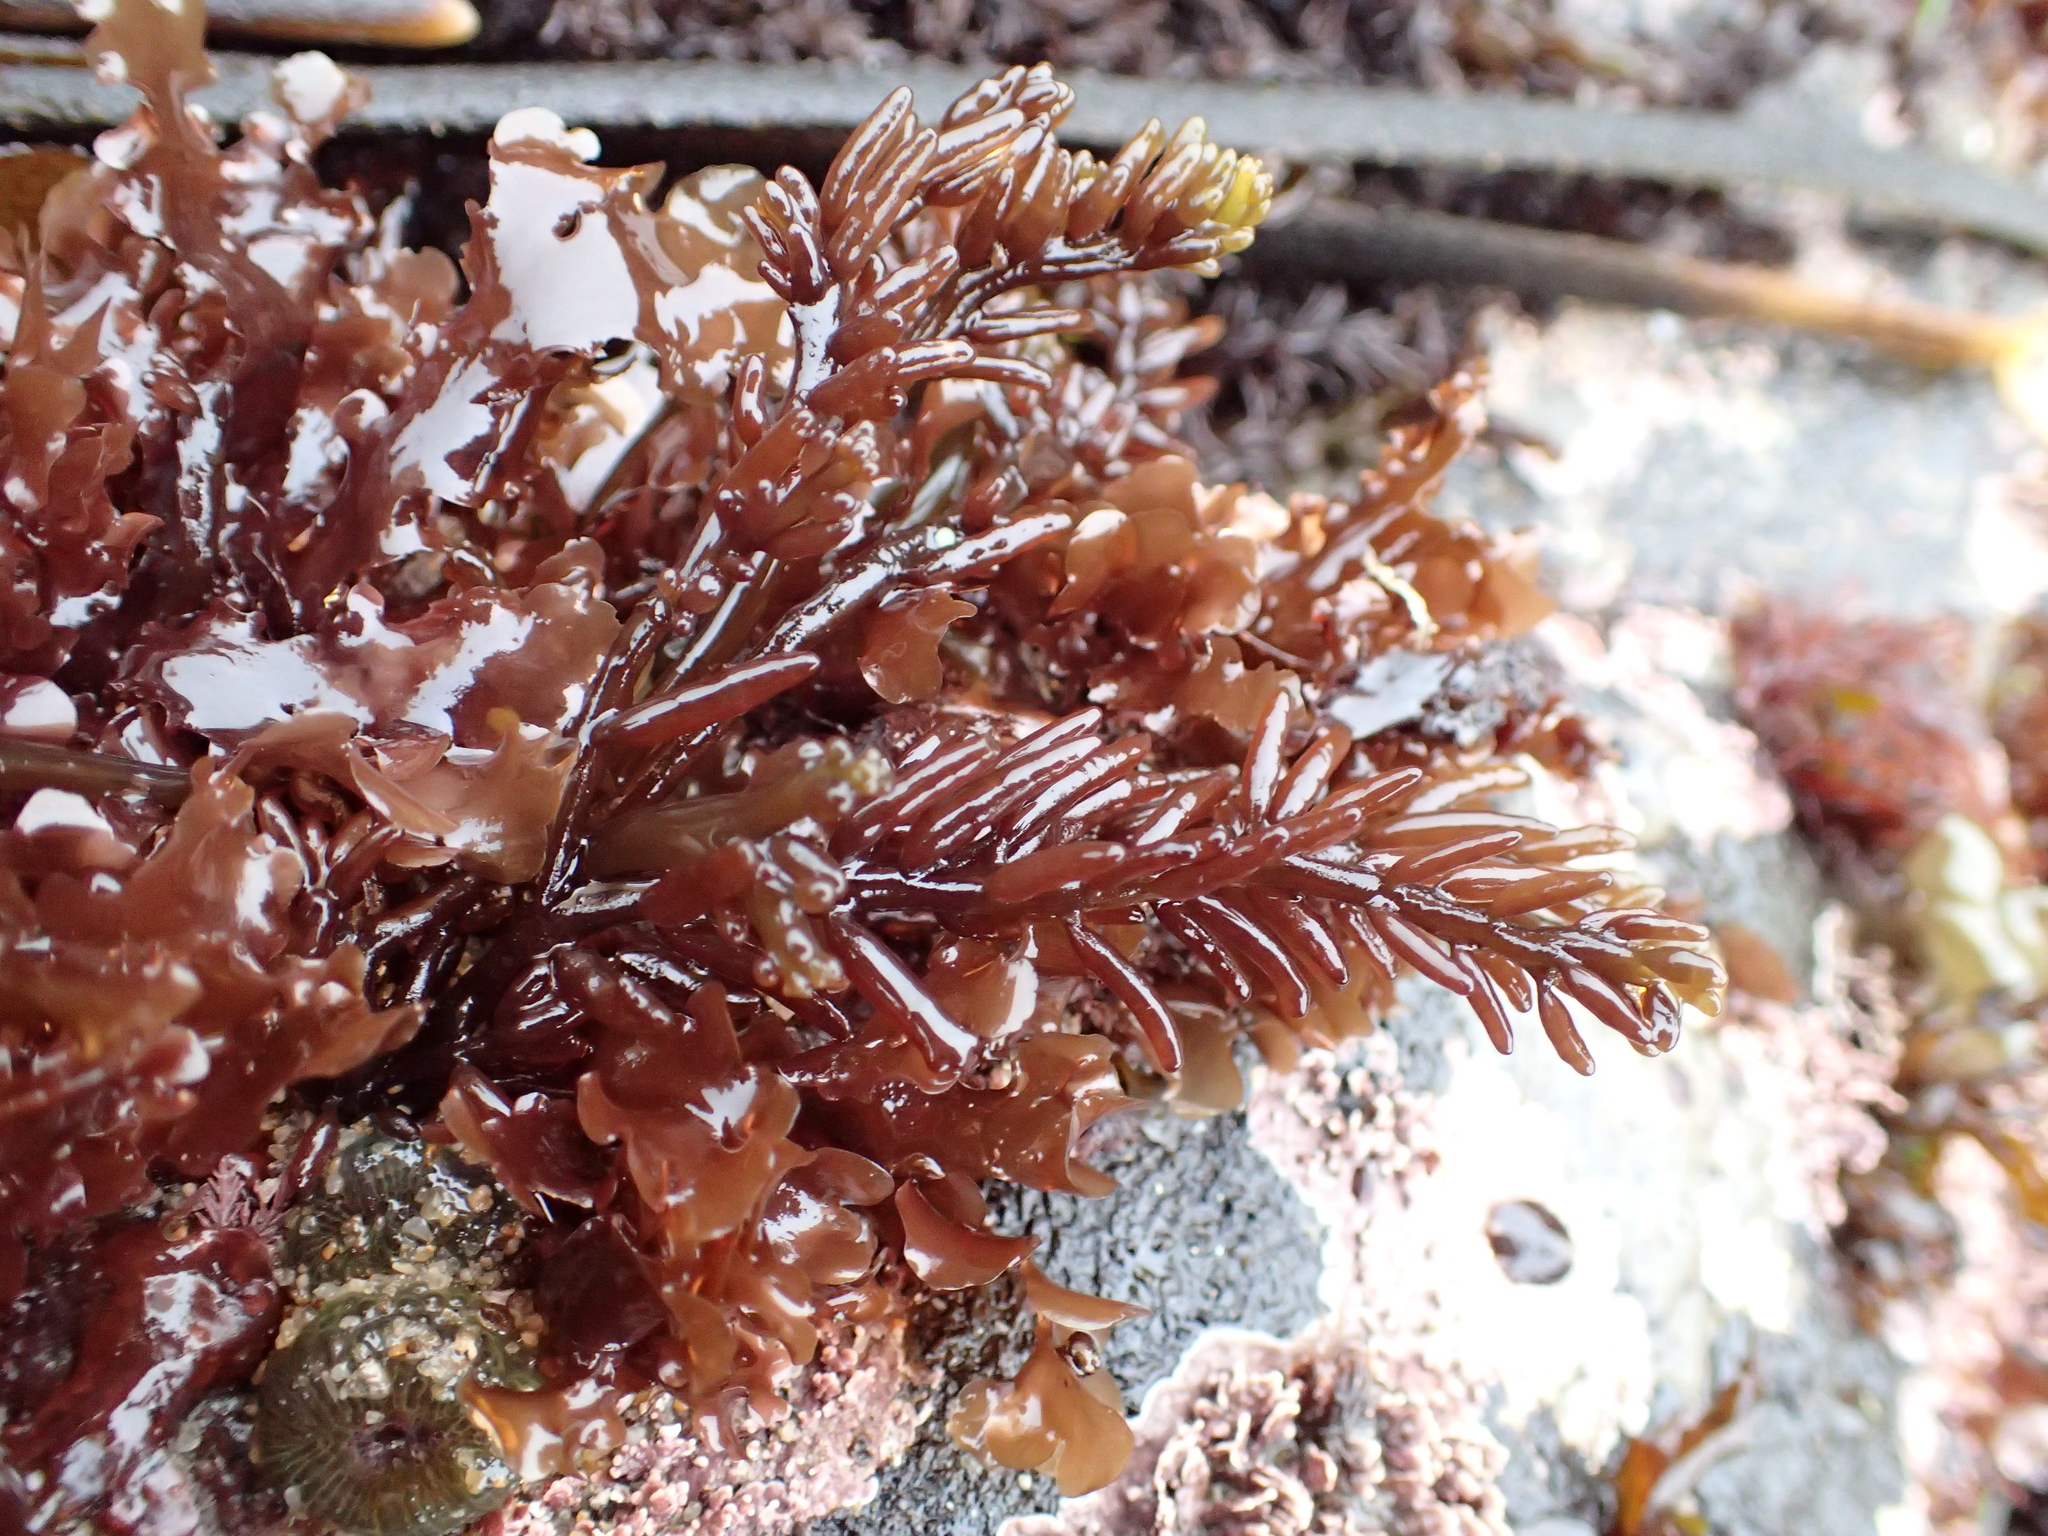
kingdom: Plantae
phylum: Rhodophyta
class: Florideophyceae
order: Rhodymeniales
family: Champiaceae
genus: Neogastroclonium
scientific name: Neogastroclonium subarticulatum
